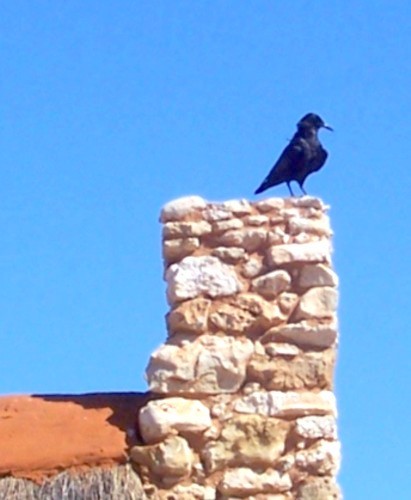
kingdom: Animalia
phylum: Chordata
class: Aves
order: Passeriformes
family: Corvidae
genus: Corvus
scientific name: Corvus capensis
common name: Cape crow
